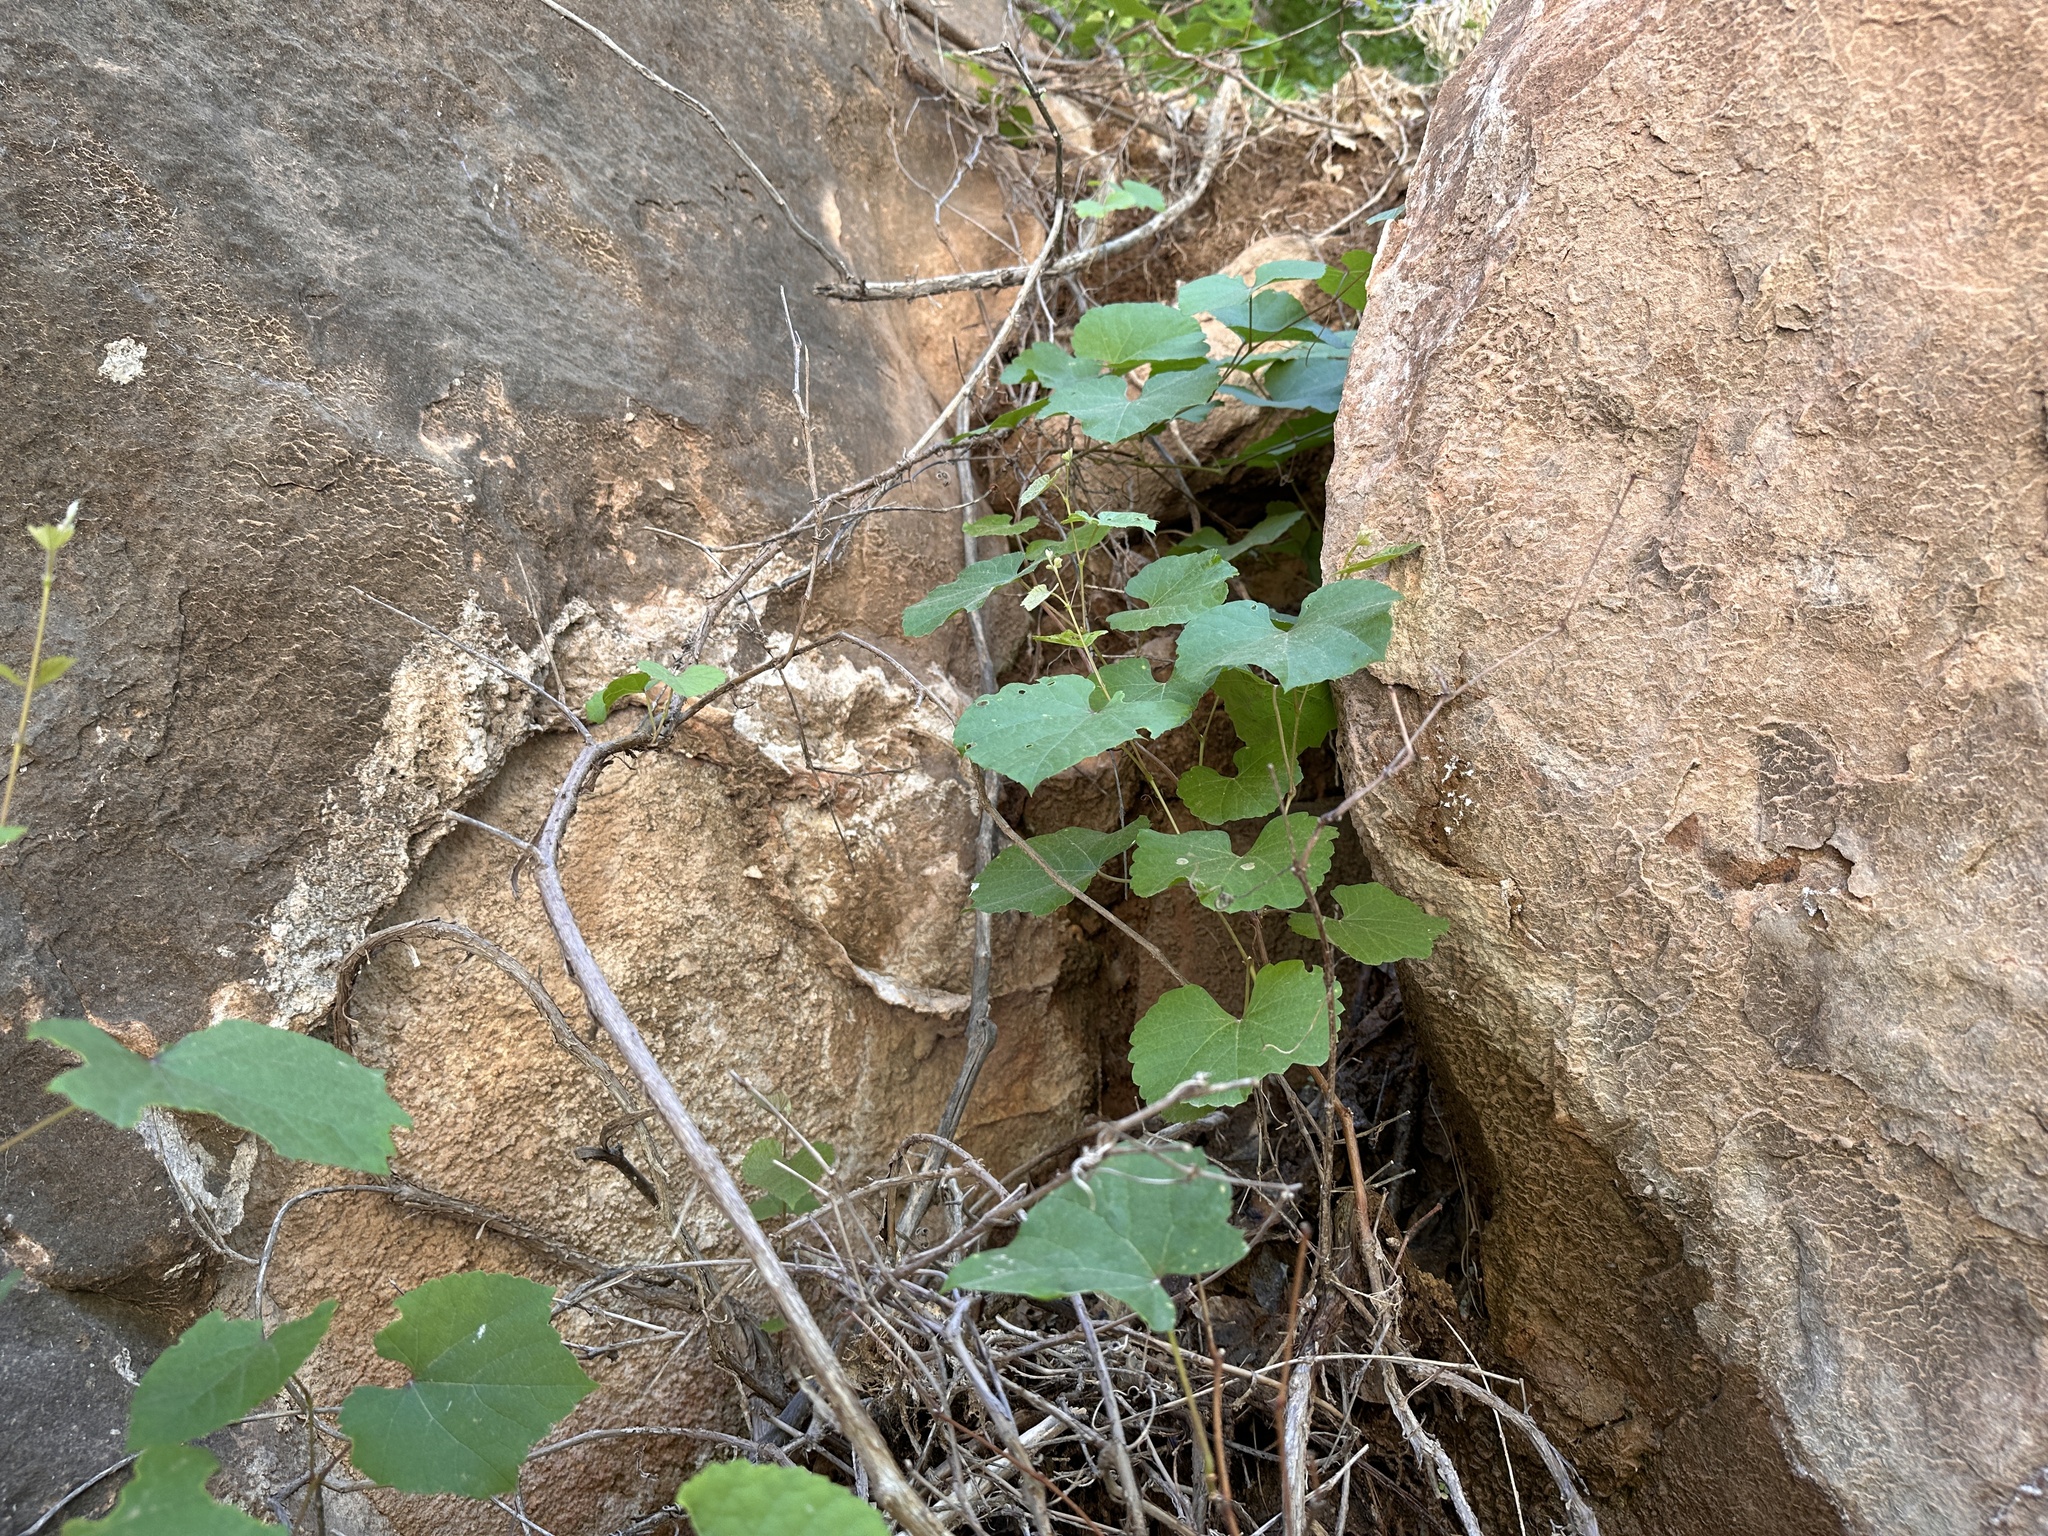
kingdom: Plantae
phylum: Tracheophyta
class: Magnoliopsida
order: Vitales
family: Vitaceae
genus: Vitis
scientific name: Vitis arizonica
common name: Canyon grape
